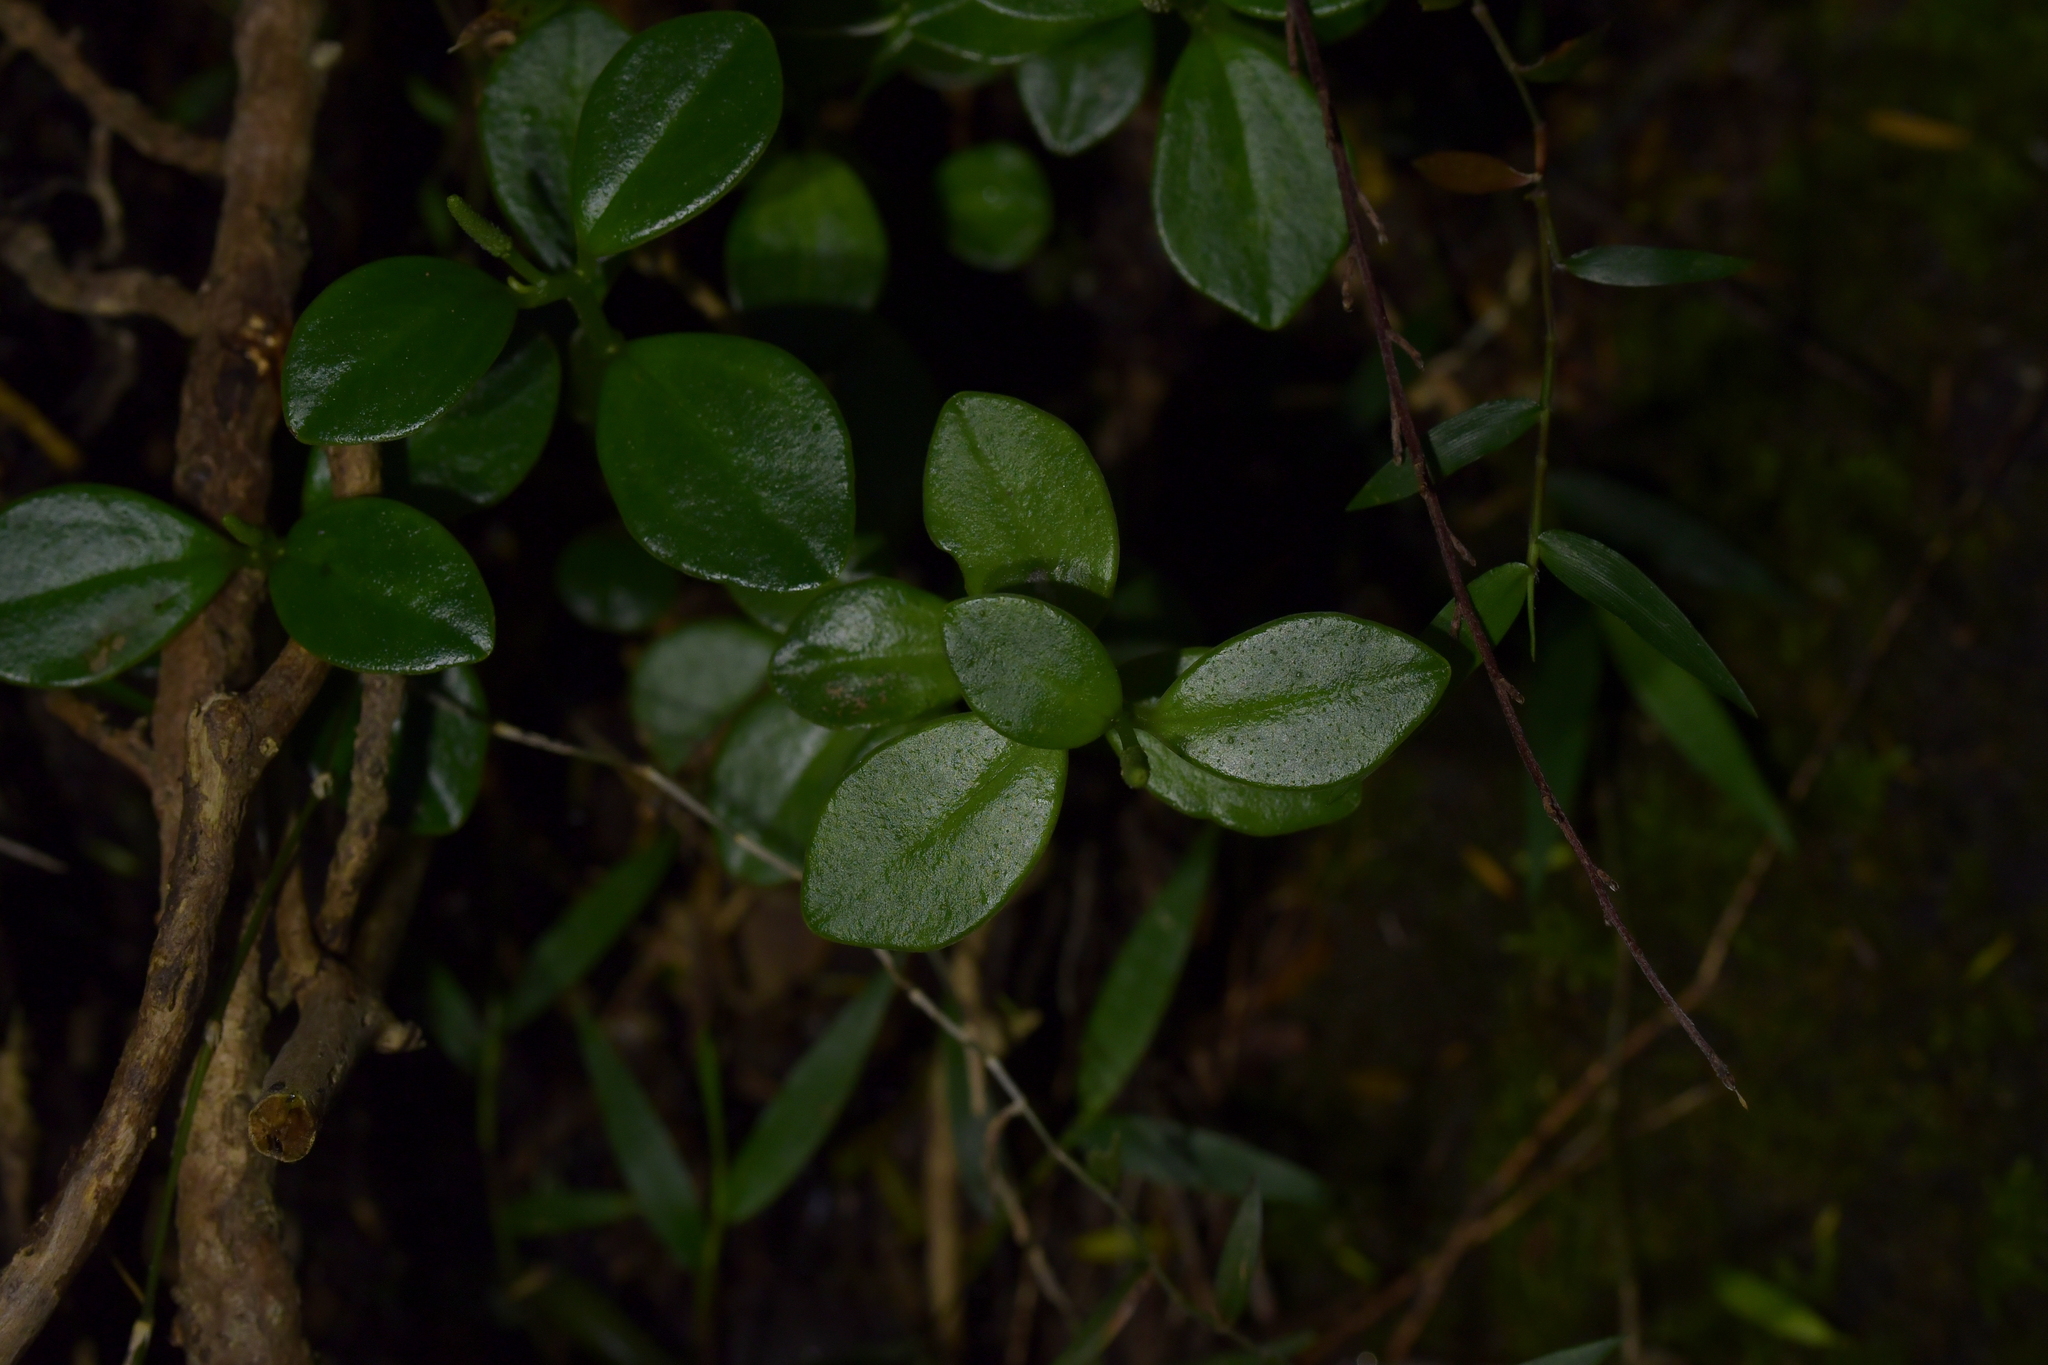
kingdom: Plantae
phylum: Tracheophyta
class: Magnoliopsida
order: Piperales
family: Piperaceae
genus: Peperomia
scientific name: Peperomia urvilleana
